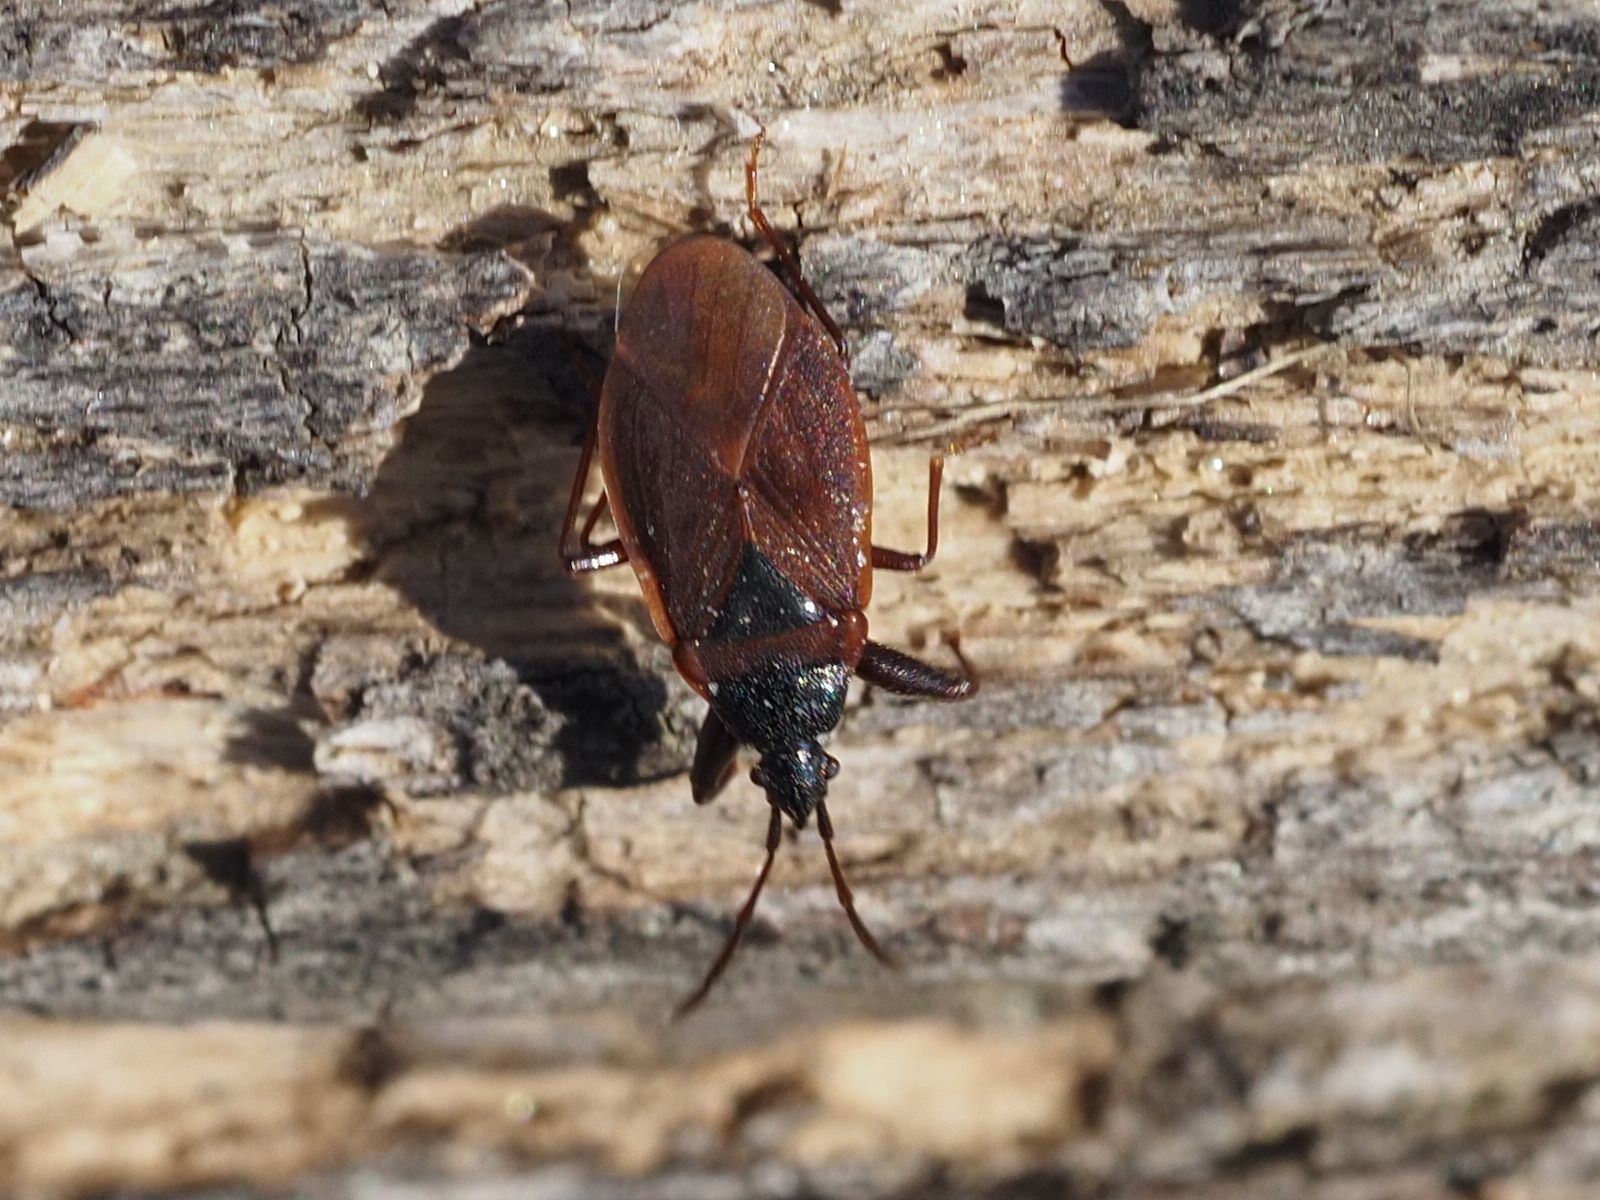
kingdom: Animalia
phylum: Arthropoda
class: Insecta
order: Hemiptera
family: Rhyparochromidae
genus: Gastrodes
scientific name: Gastrodes grossipes
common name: Pine cone bug
